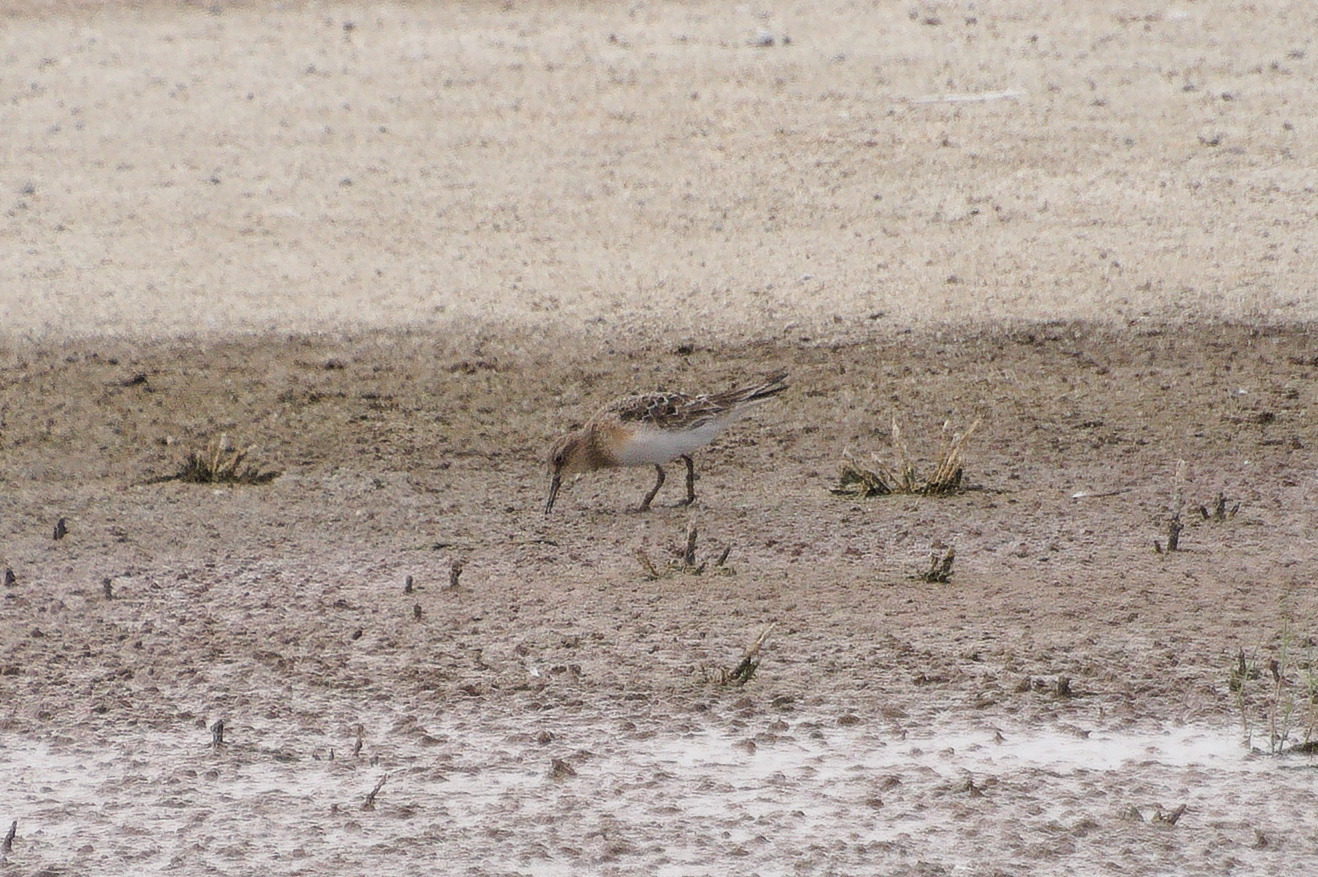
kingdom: Animalia
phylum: Chordata
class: Aves
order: Charadriiformes
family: Scolopacidae
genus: Calidris
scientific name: Calidris bairdii
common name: Baird's sandpiper
